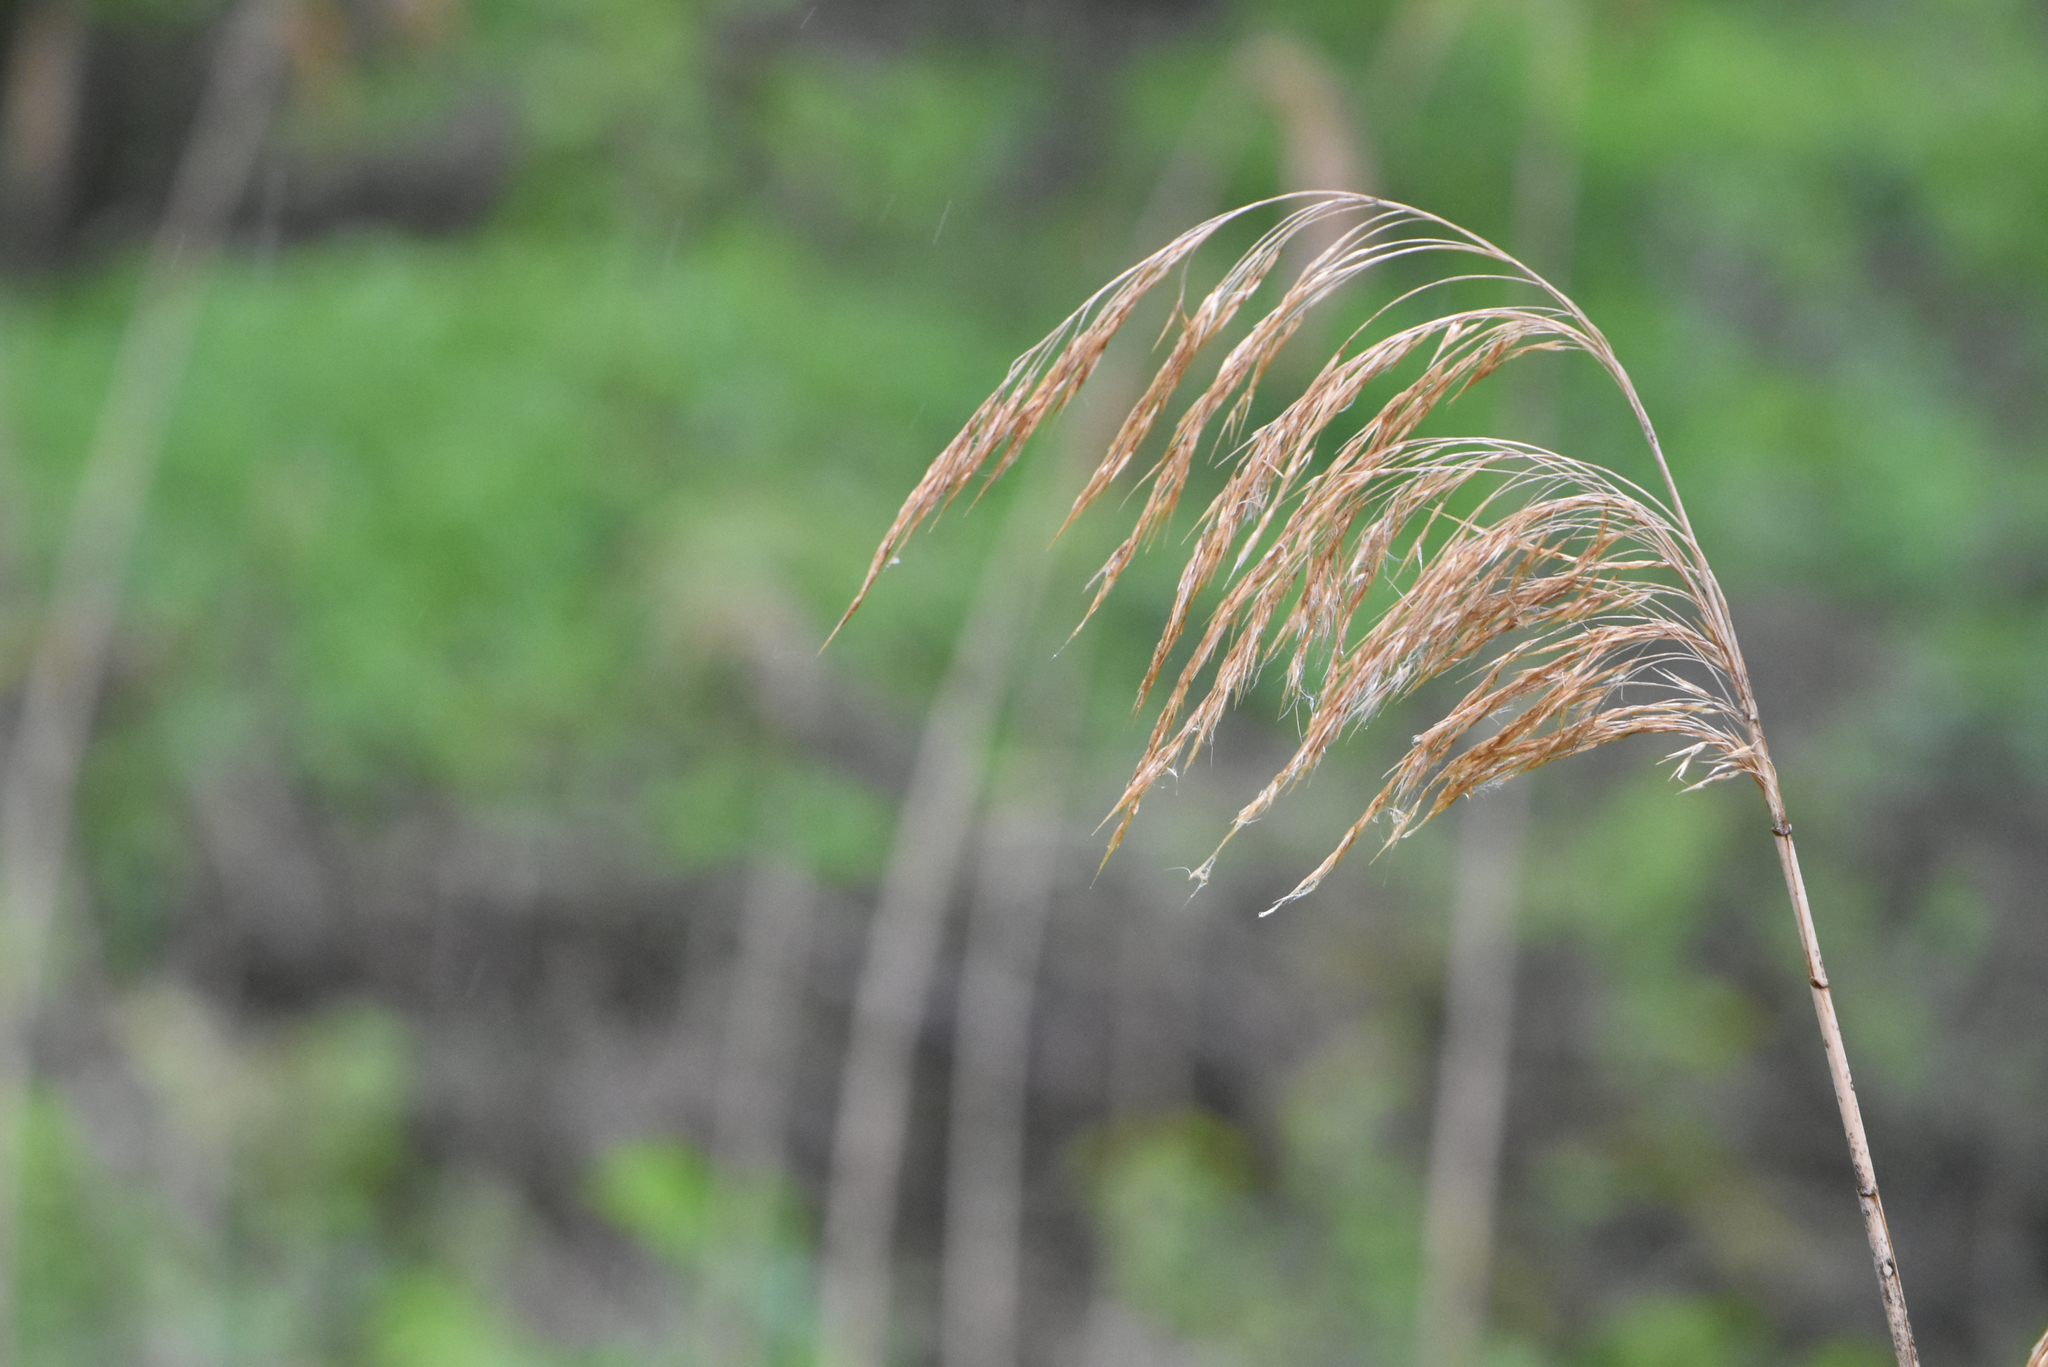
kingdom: Plantae
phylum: Tracheophyta
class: Liliopsida
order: Poales
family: Poaceae
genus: Phragmites
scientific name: Phragmites australis
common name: Common reed
